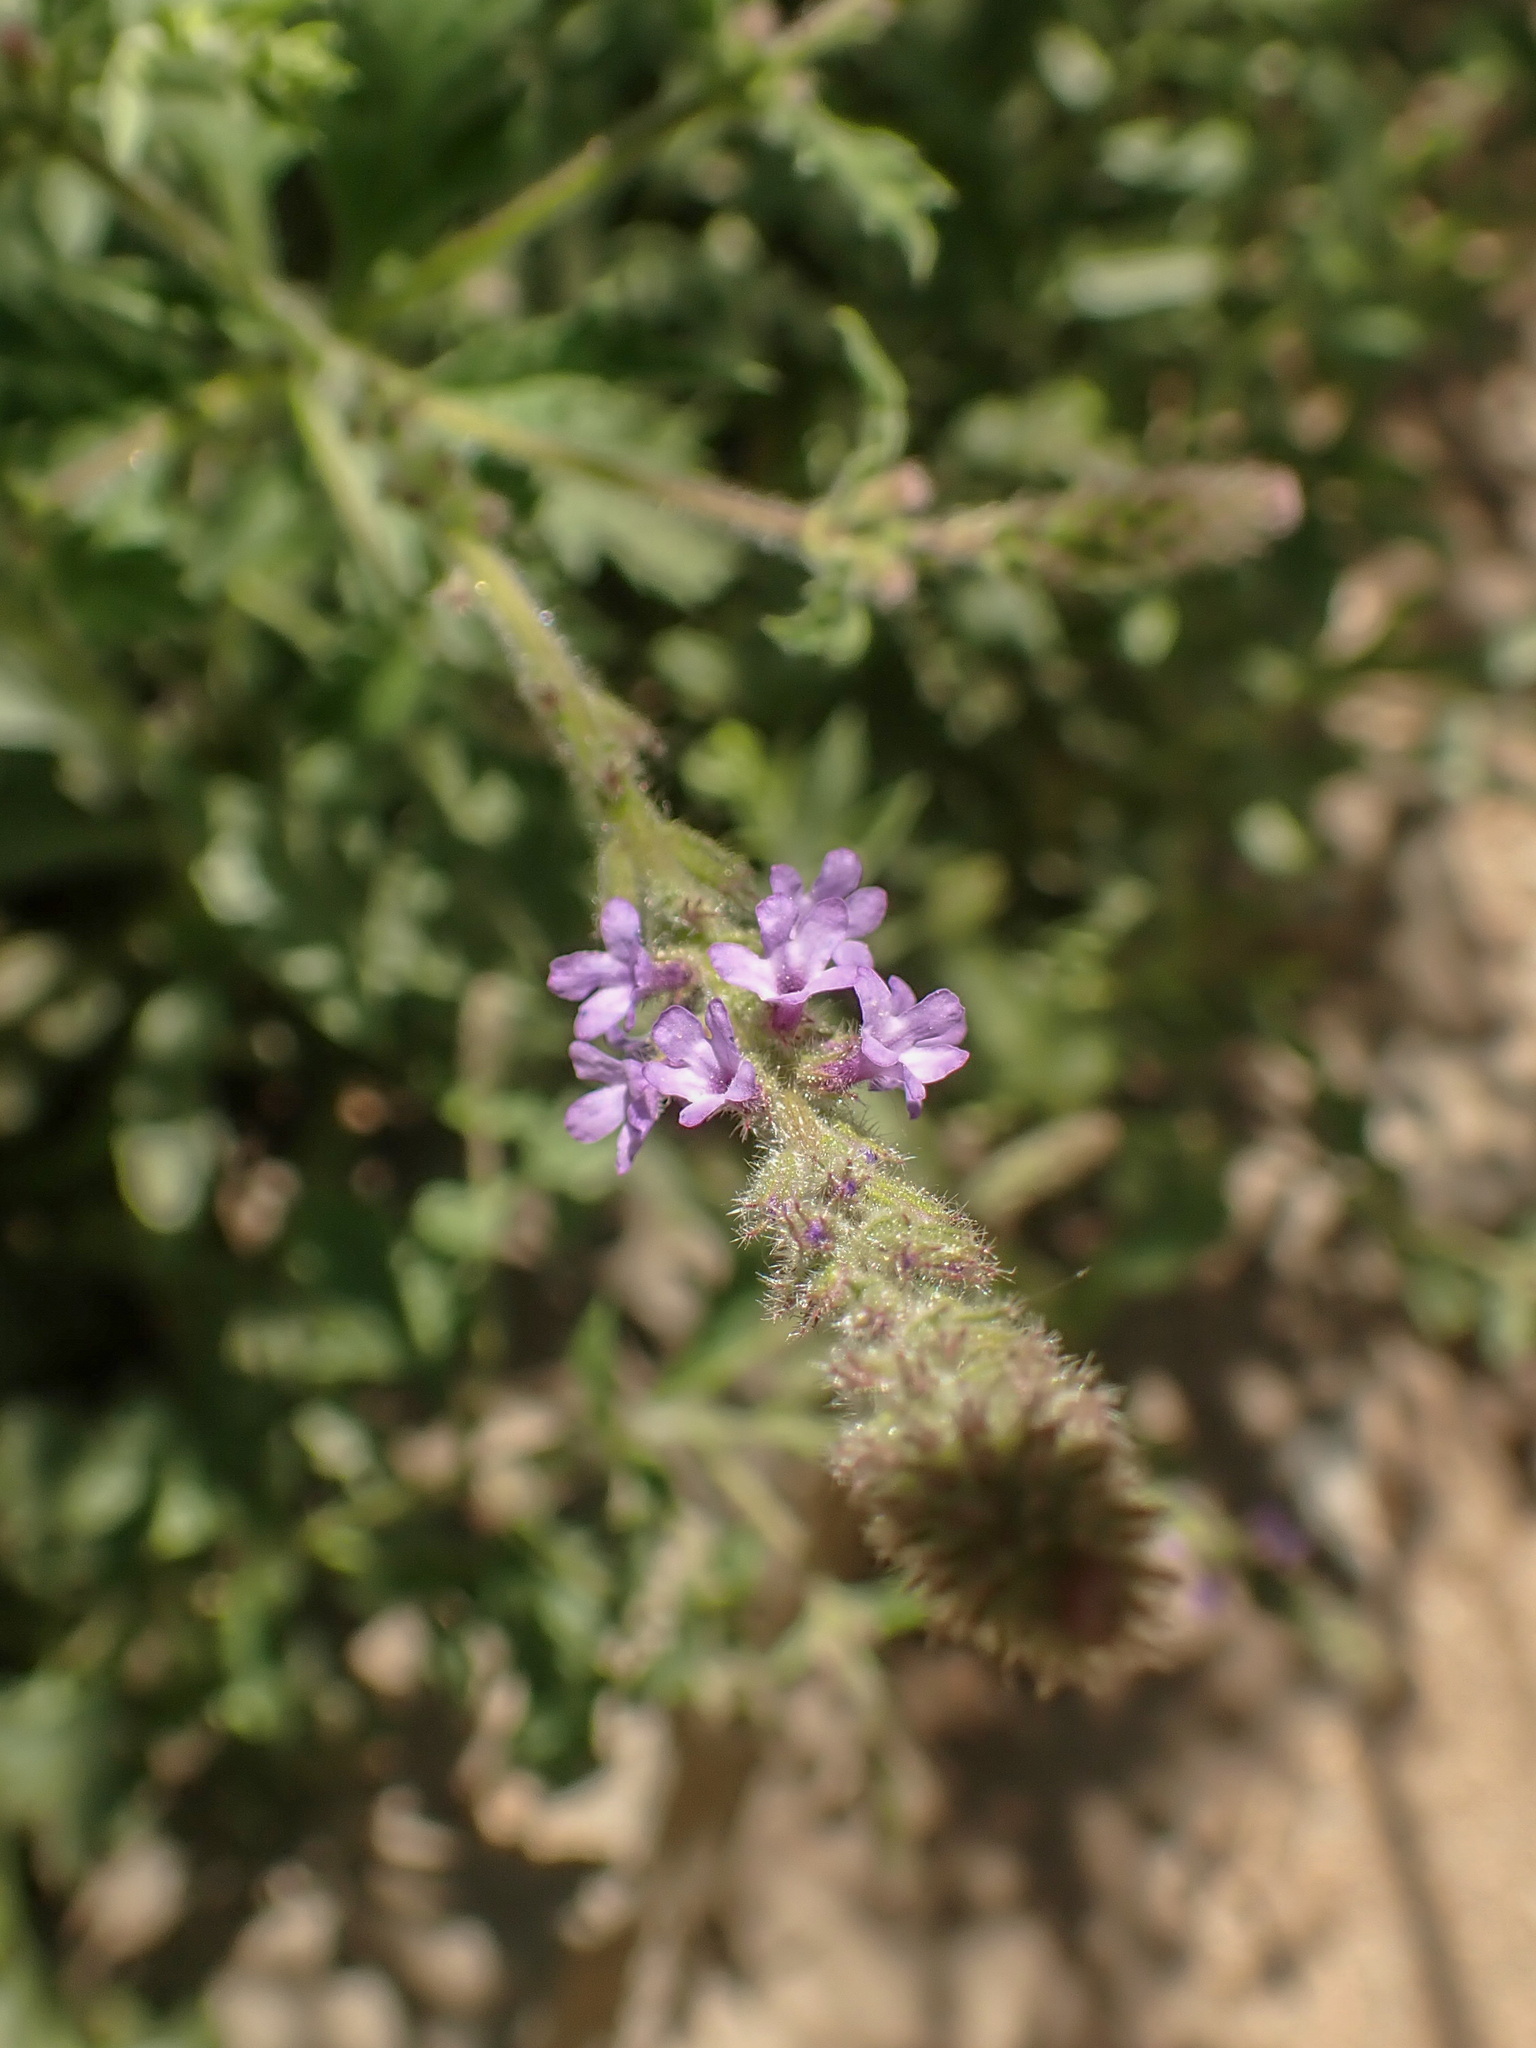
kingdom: Plantae
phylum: Tracheophyta
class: Magnoliopsida
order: Lamiales
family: Verbenaceae
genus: Verbena
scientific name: Verbena lasiostachys
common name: Vervain
